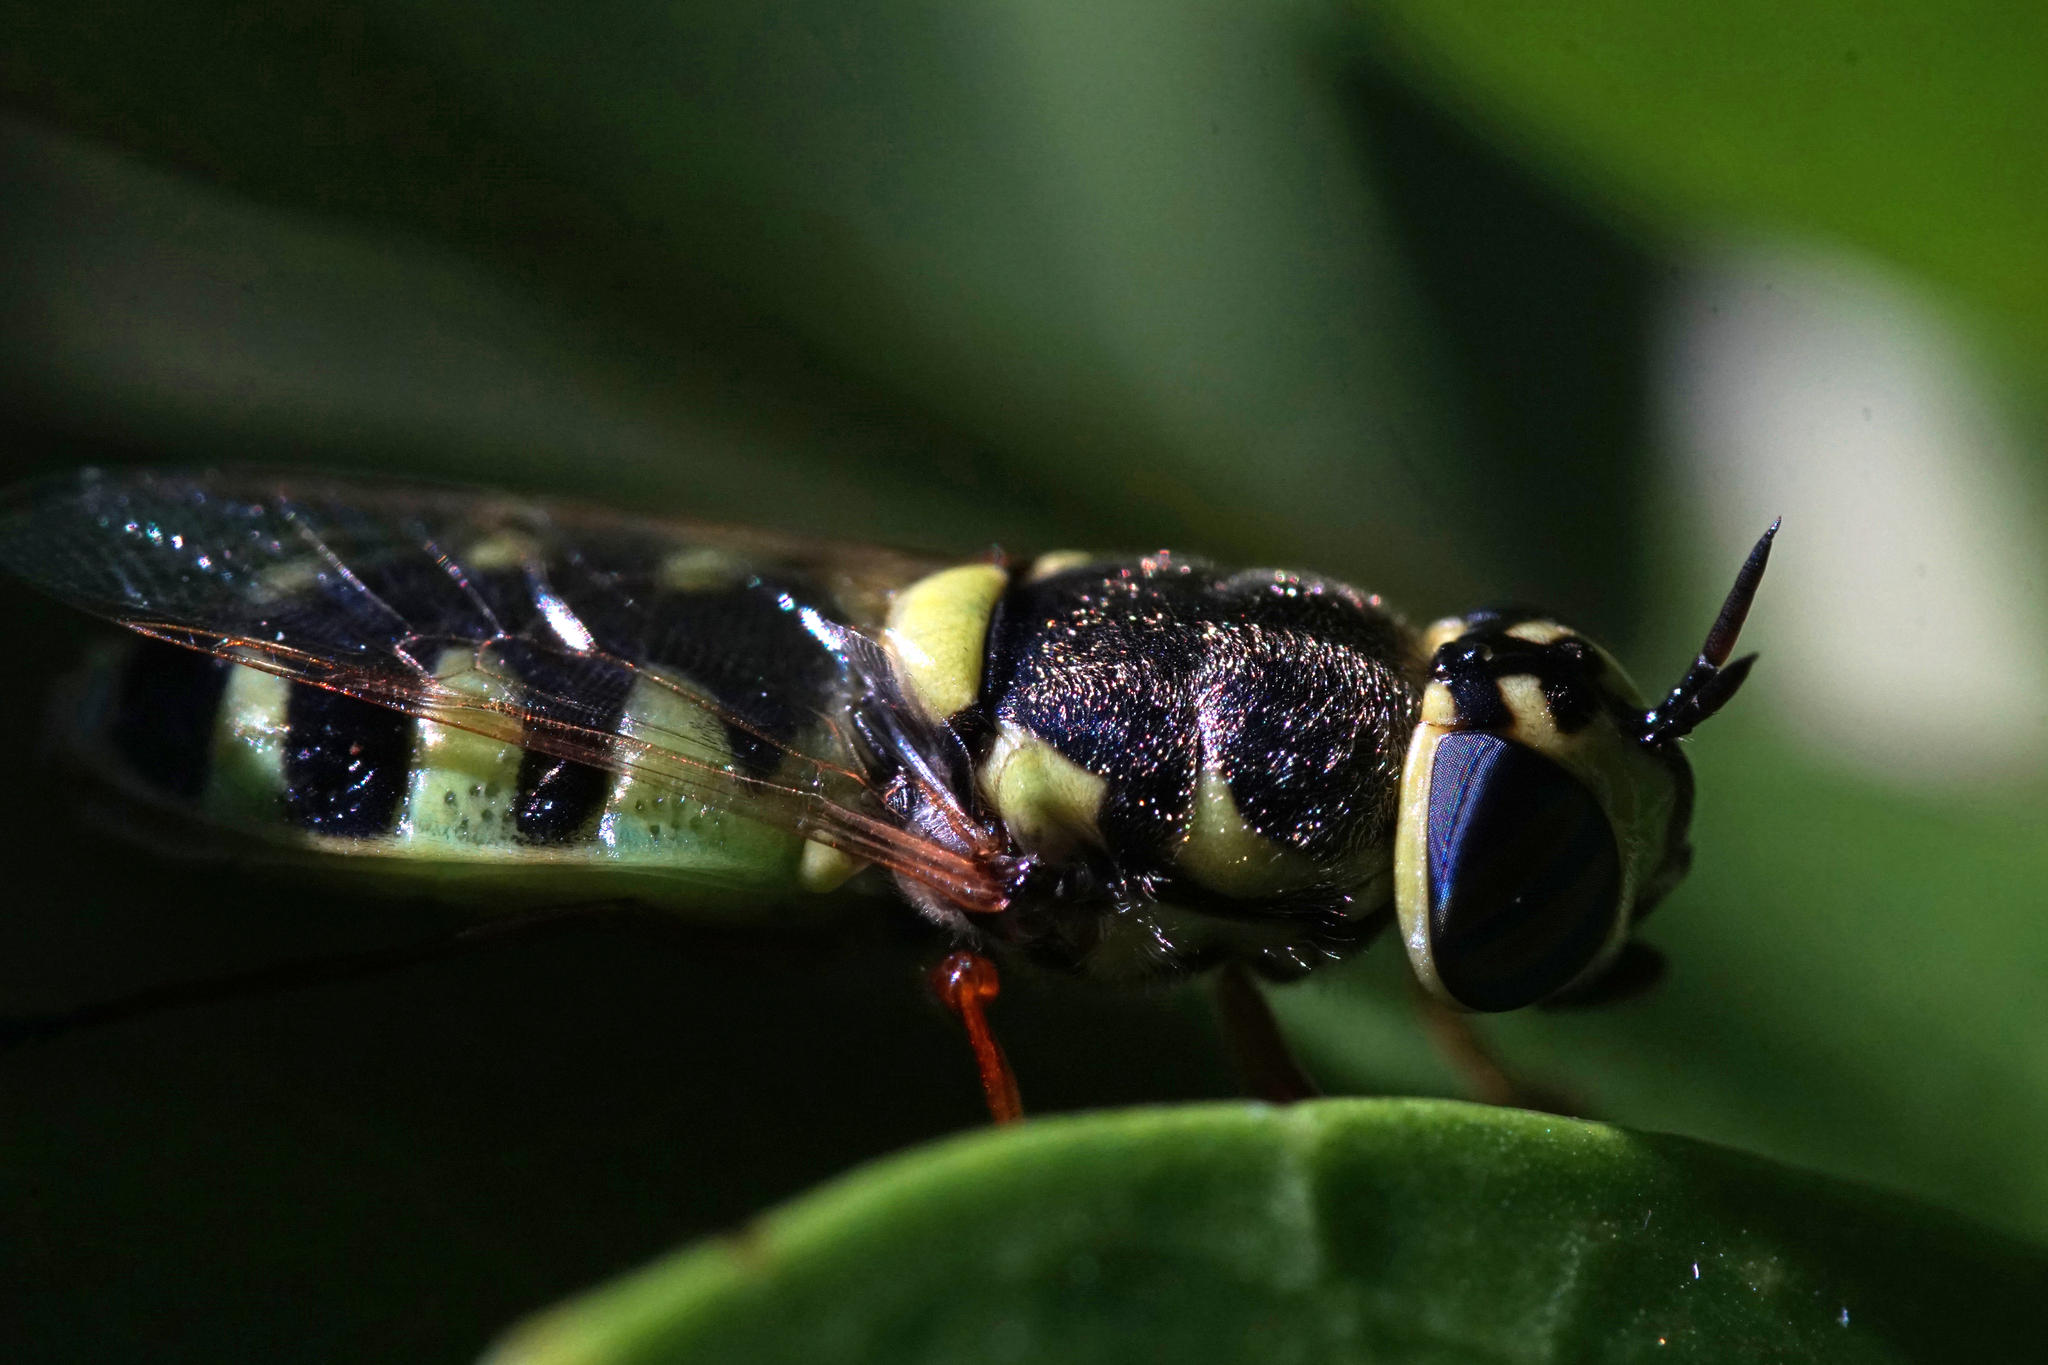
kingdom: Animalia
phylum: Arthropoda
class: Insecta
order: Diptera
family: Stratiomyidae
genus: Odontomyia
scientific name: Odontomyia rufipes
